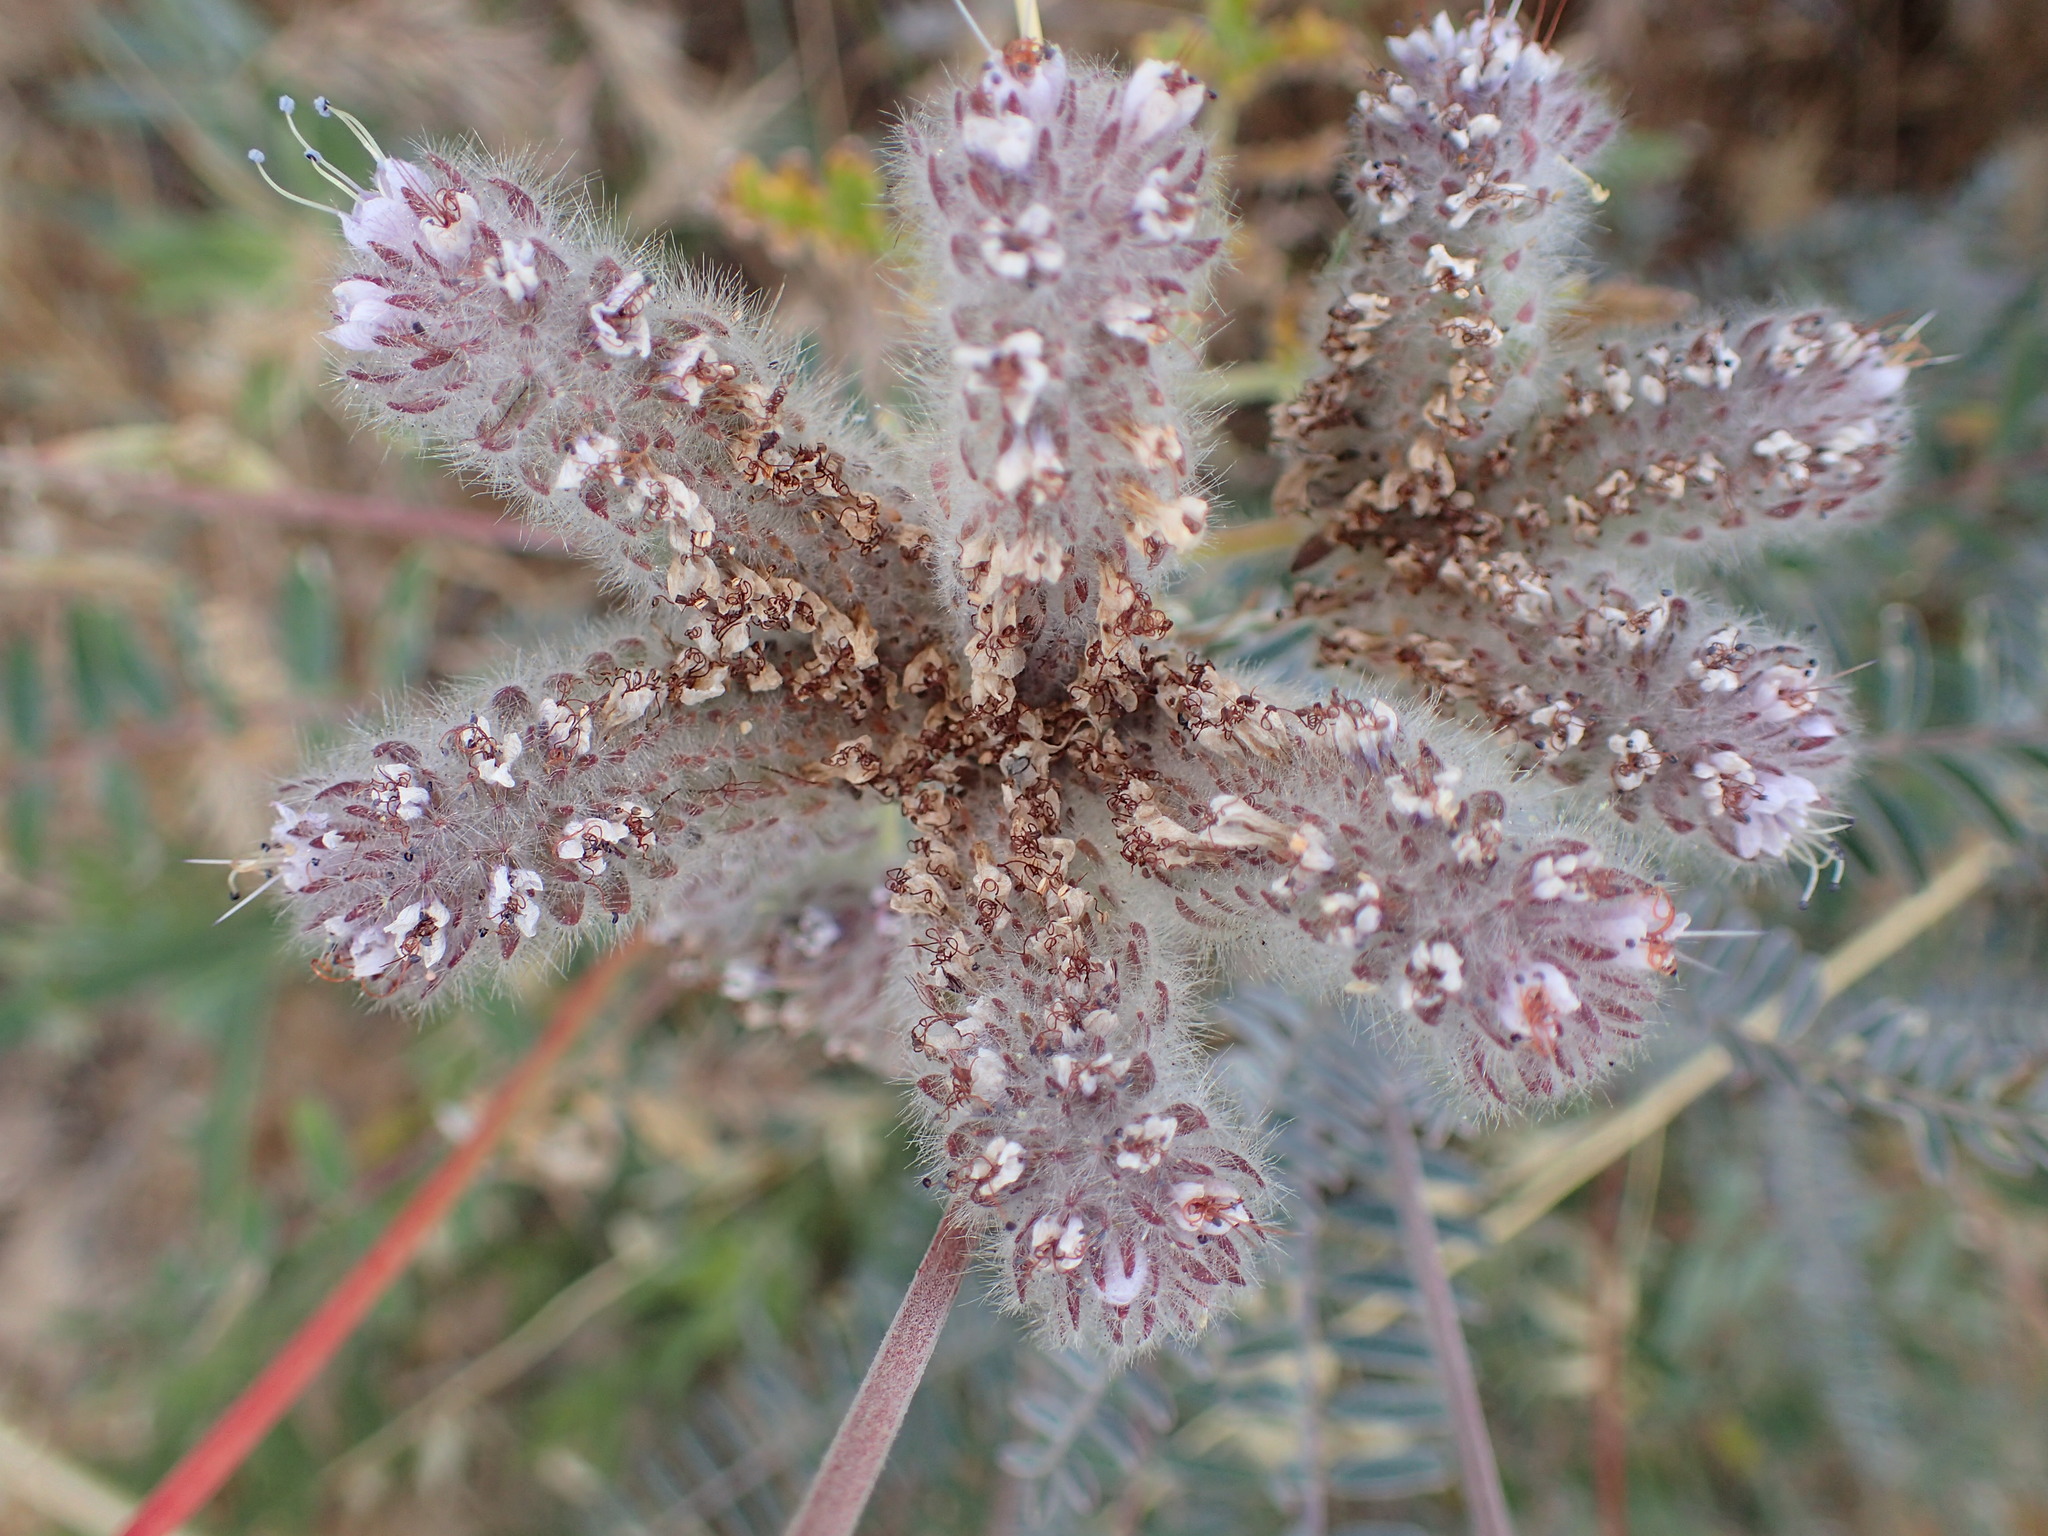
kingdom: Plantae
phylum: Tracheophyta
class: Magnoliopsida
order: Boraginales
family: Hydrophyllaceae
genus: Phacelia
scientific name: Phacelia hubbyi
